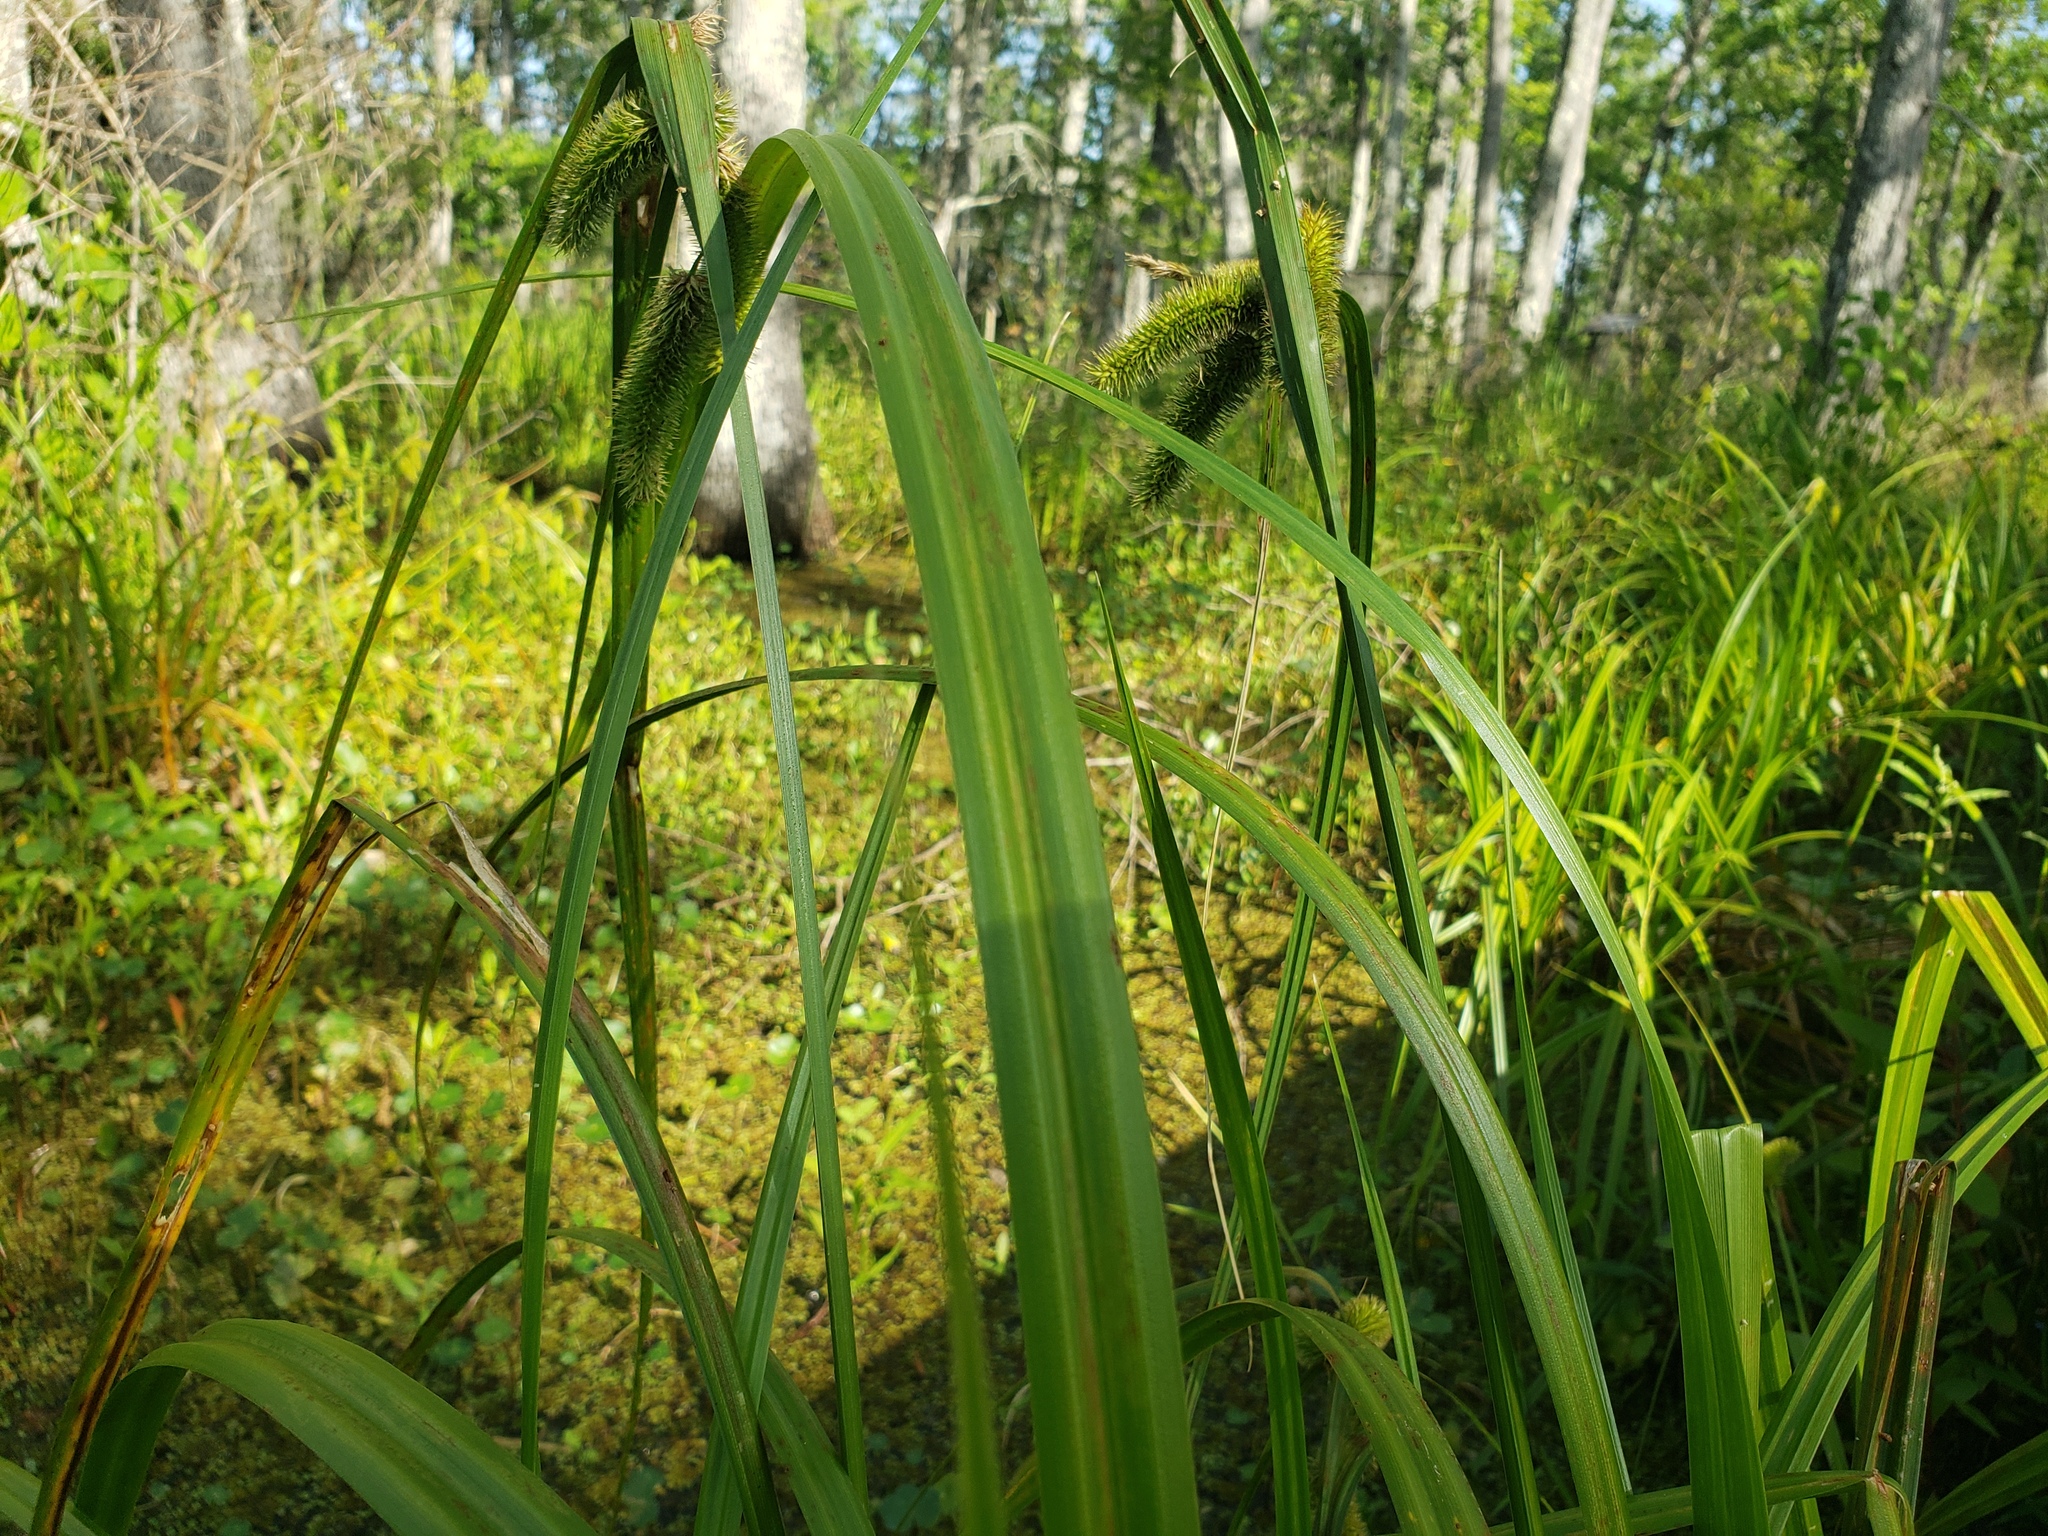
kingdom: Plantae
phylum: Tracheophyta
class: Liliopsida
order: Poales
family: Cyperaceae
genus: Carex
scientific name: Carex comosa
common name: Bristly sedge
